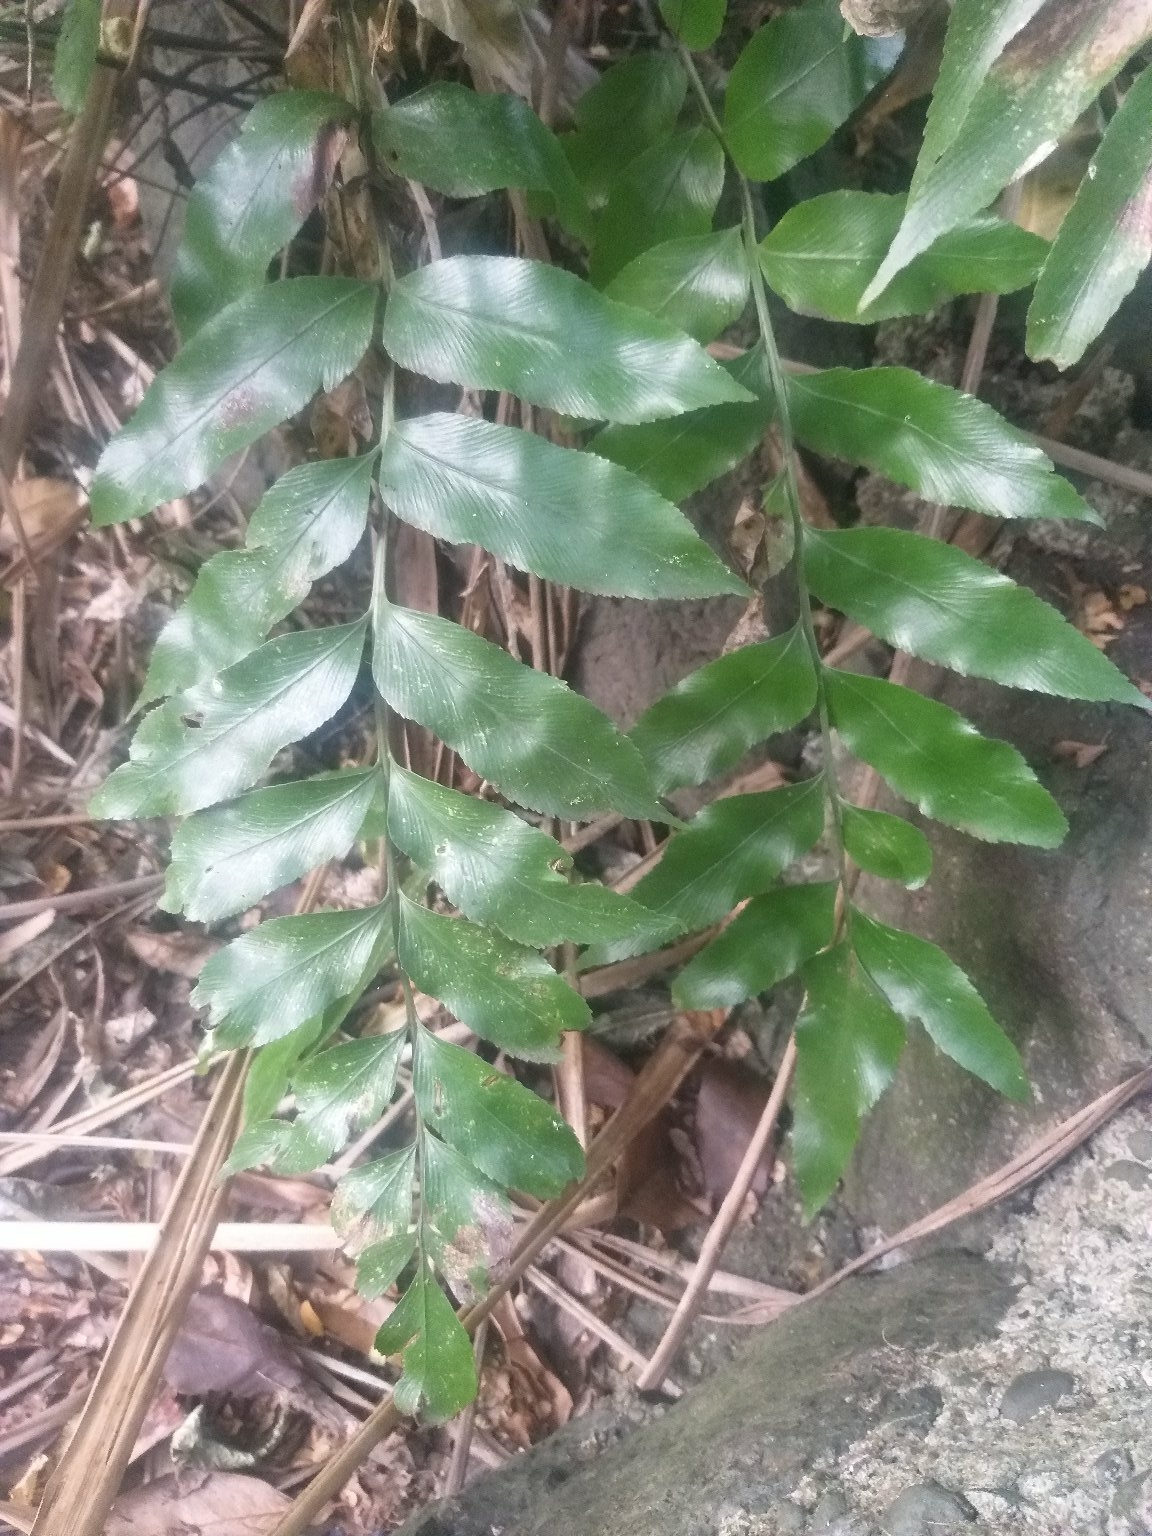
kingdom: Plantae
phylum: Tracheophyta
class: Polypodiopsida
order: Polypodiales
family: Aspleniaceae
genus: Asplenium
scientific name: Asplenium oblongifolium
